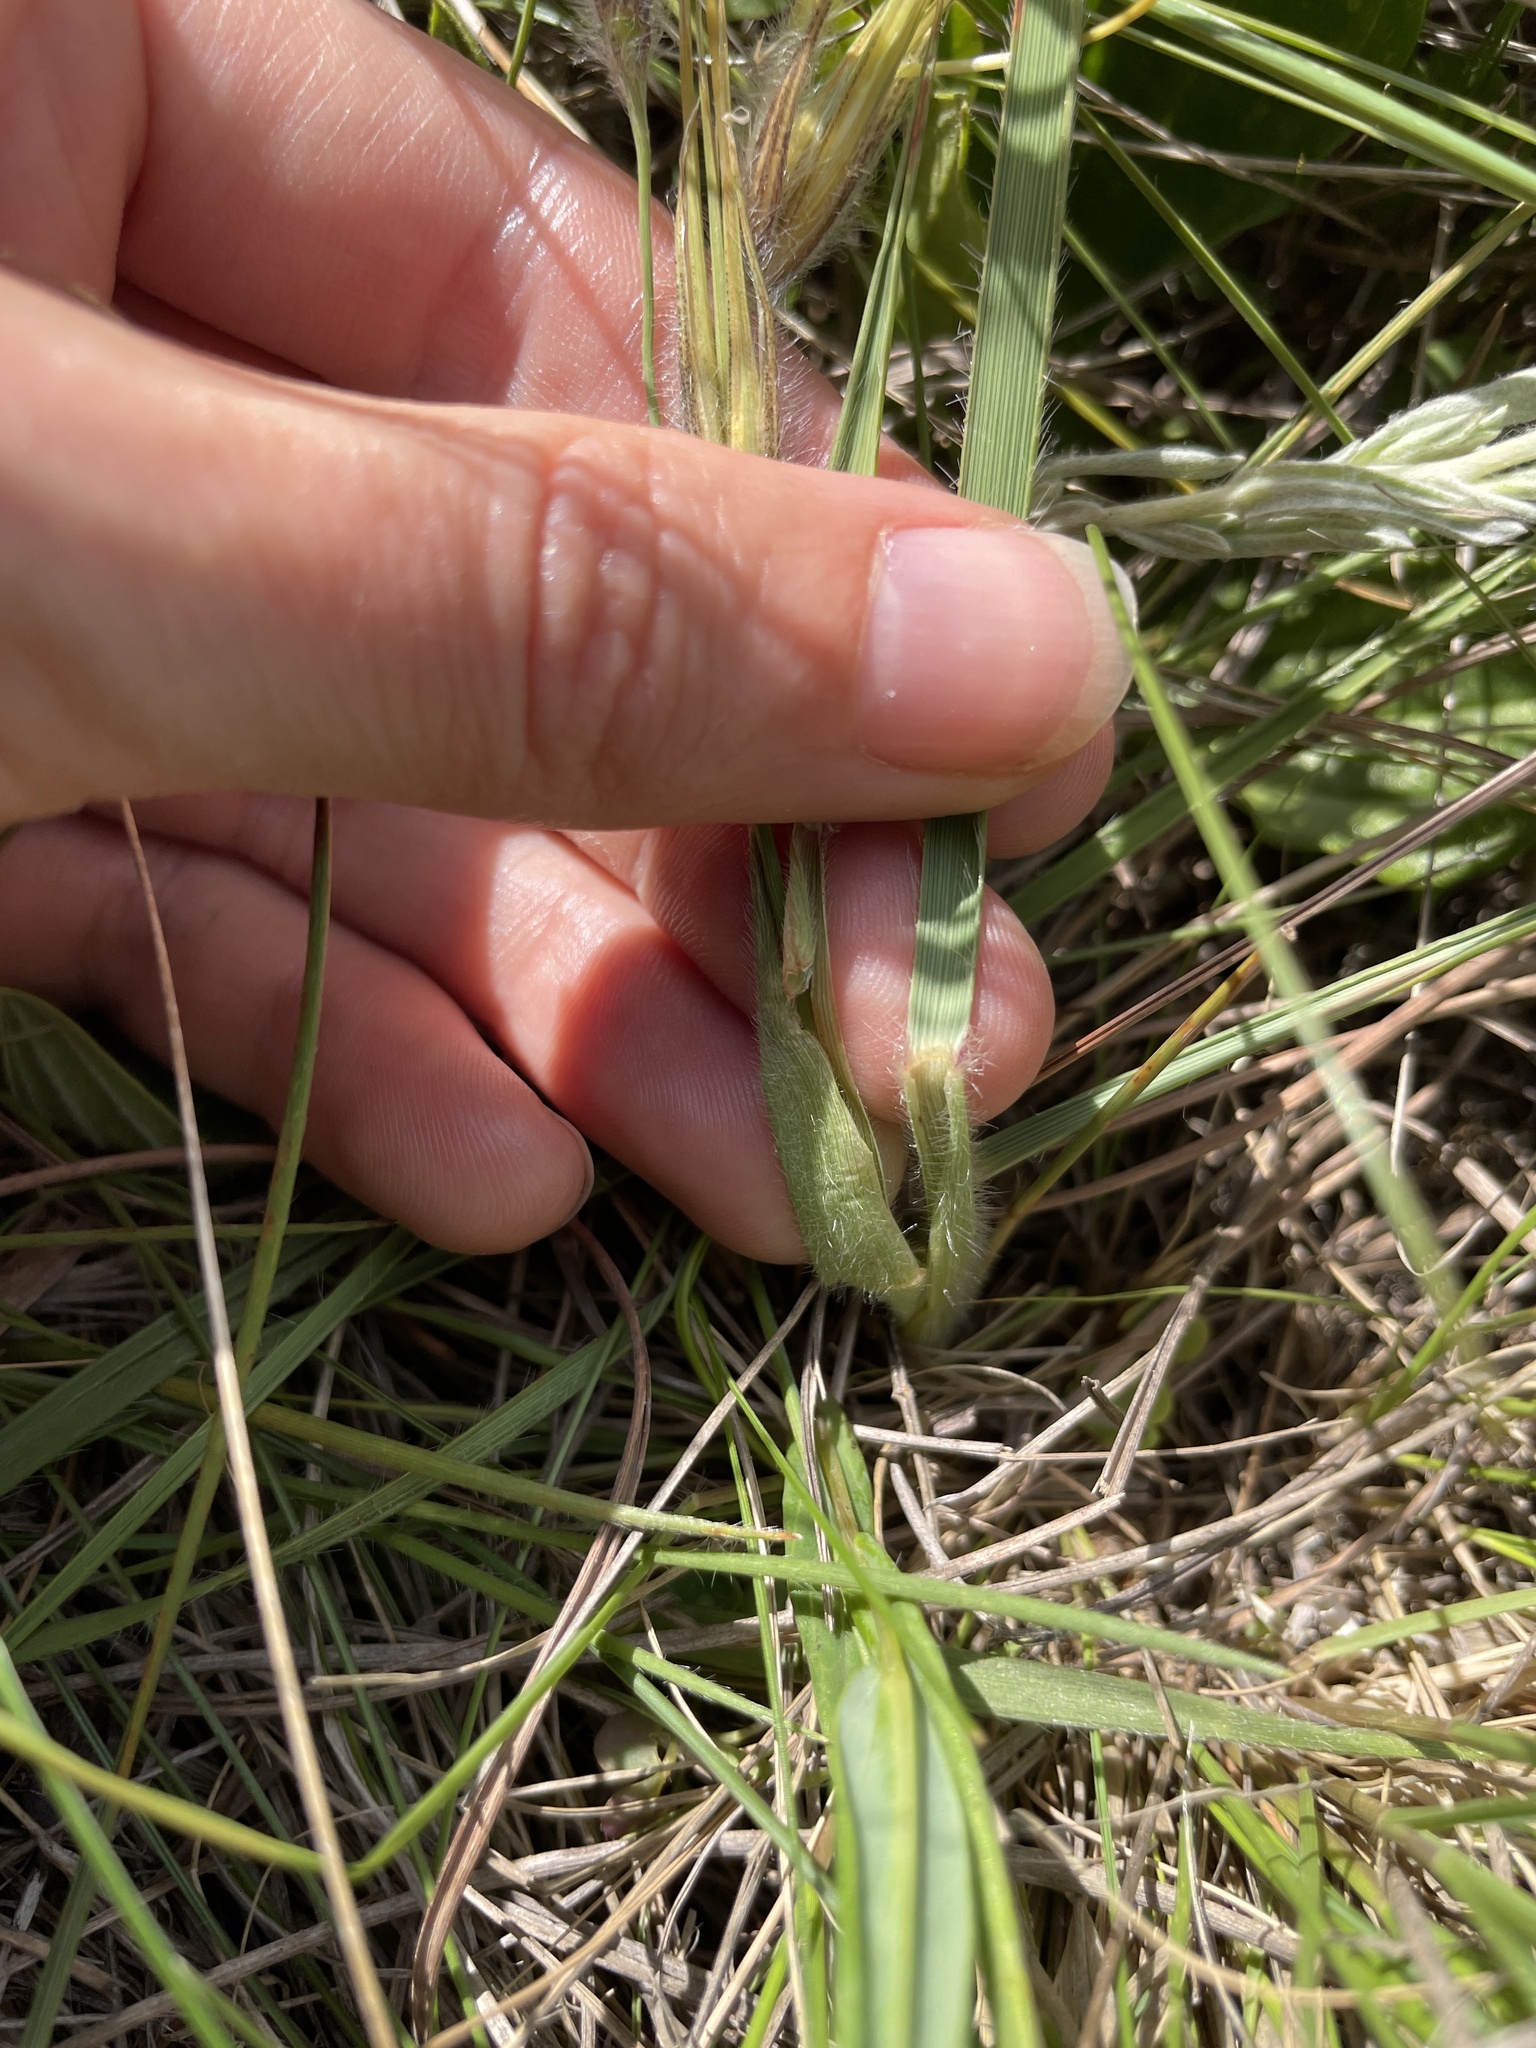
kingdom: Plantae
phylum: Tracheophyta
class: Liliopsida
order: Poales
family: Poaceae
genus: Tristachya
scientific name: Tristachya leucothrix
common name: Trident grass
